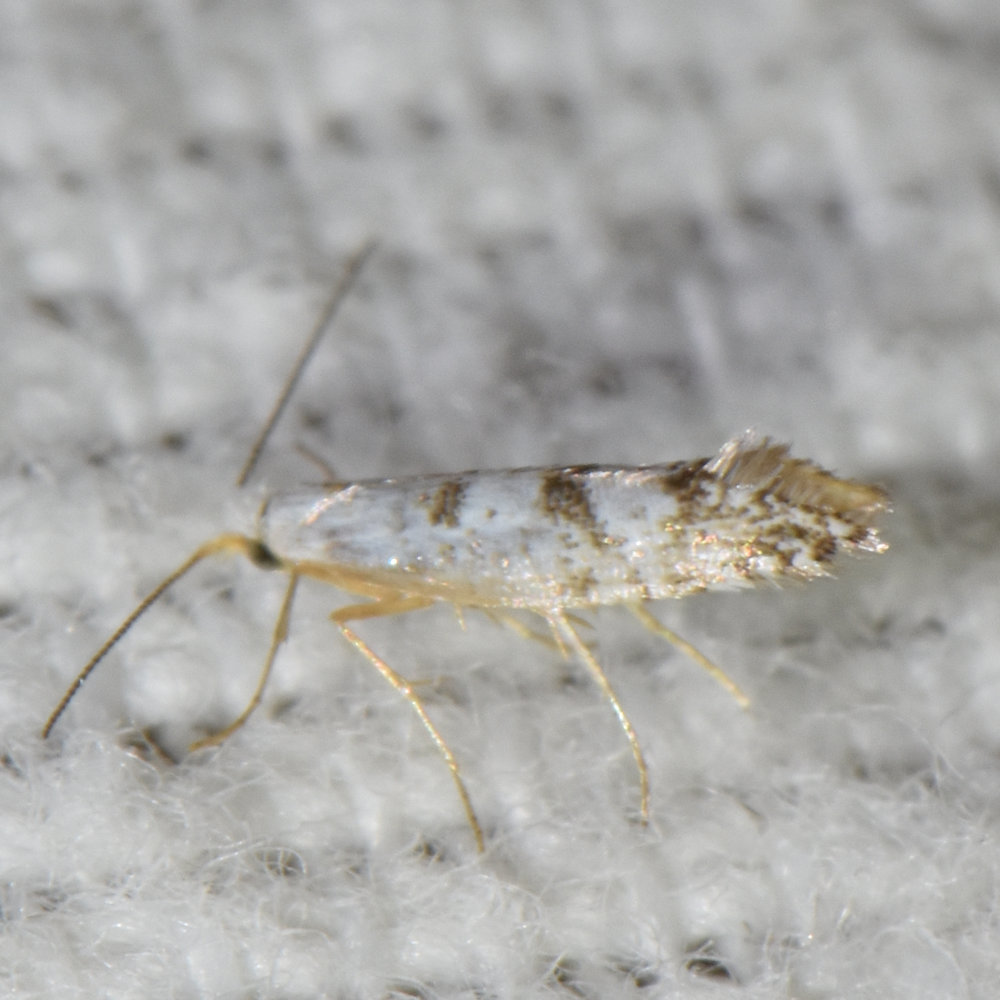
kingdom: Animalia
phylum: Arthropoda
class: Insecta
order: Lepidoptera
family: Argyresthiidae
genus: Argyresthia
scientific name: Argyresthia thuiella
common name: Arborvitae leafminer
